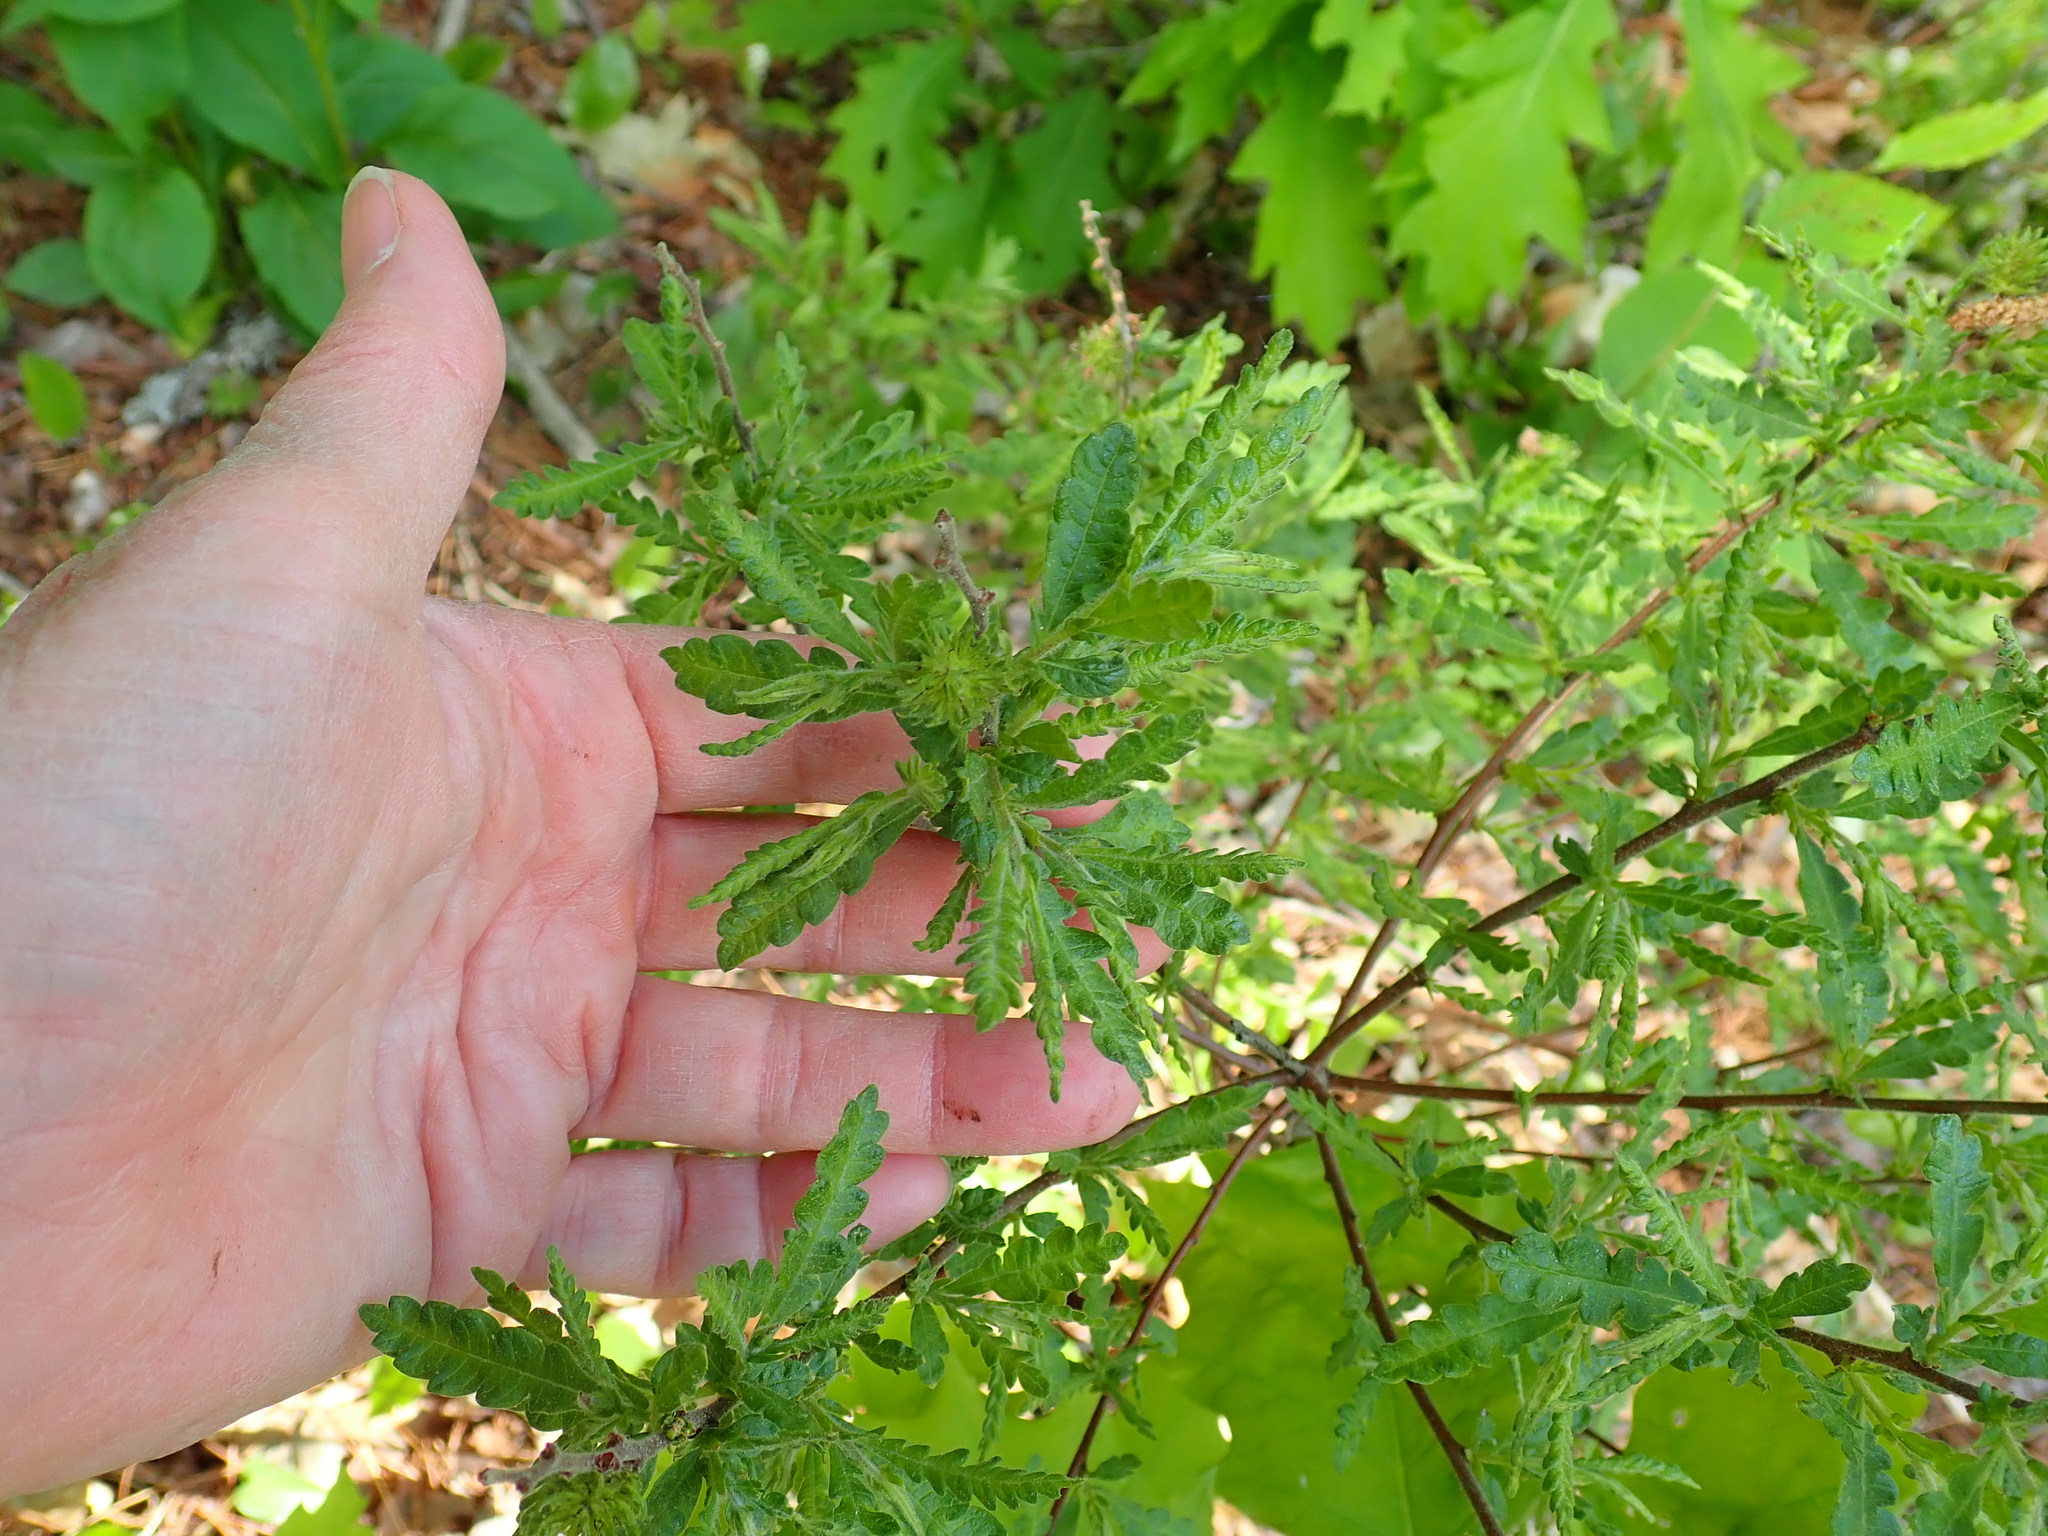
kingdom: Plantae
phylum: Tracheophyta
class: Magnoliopsida
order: Fagales
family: Myricaceae
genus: Comptonia
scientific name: Comptonia peregrina
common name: Sweet-fern
